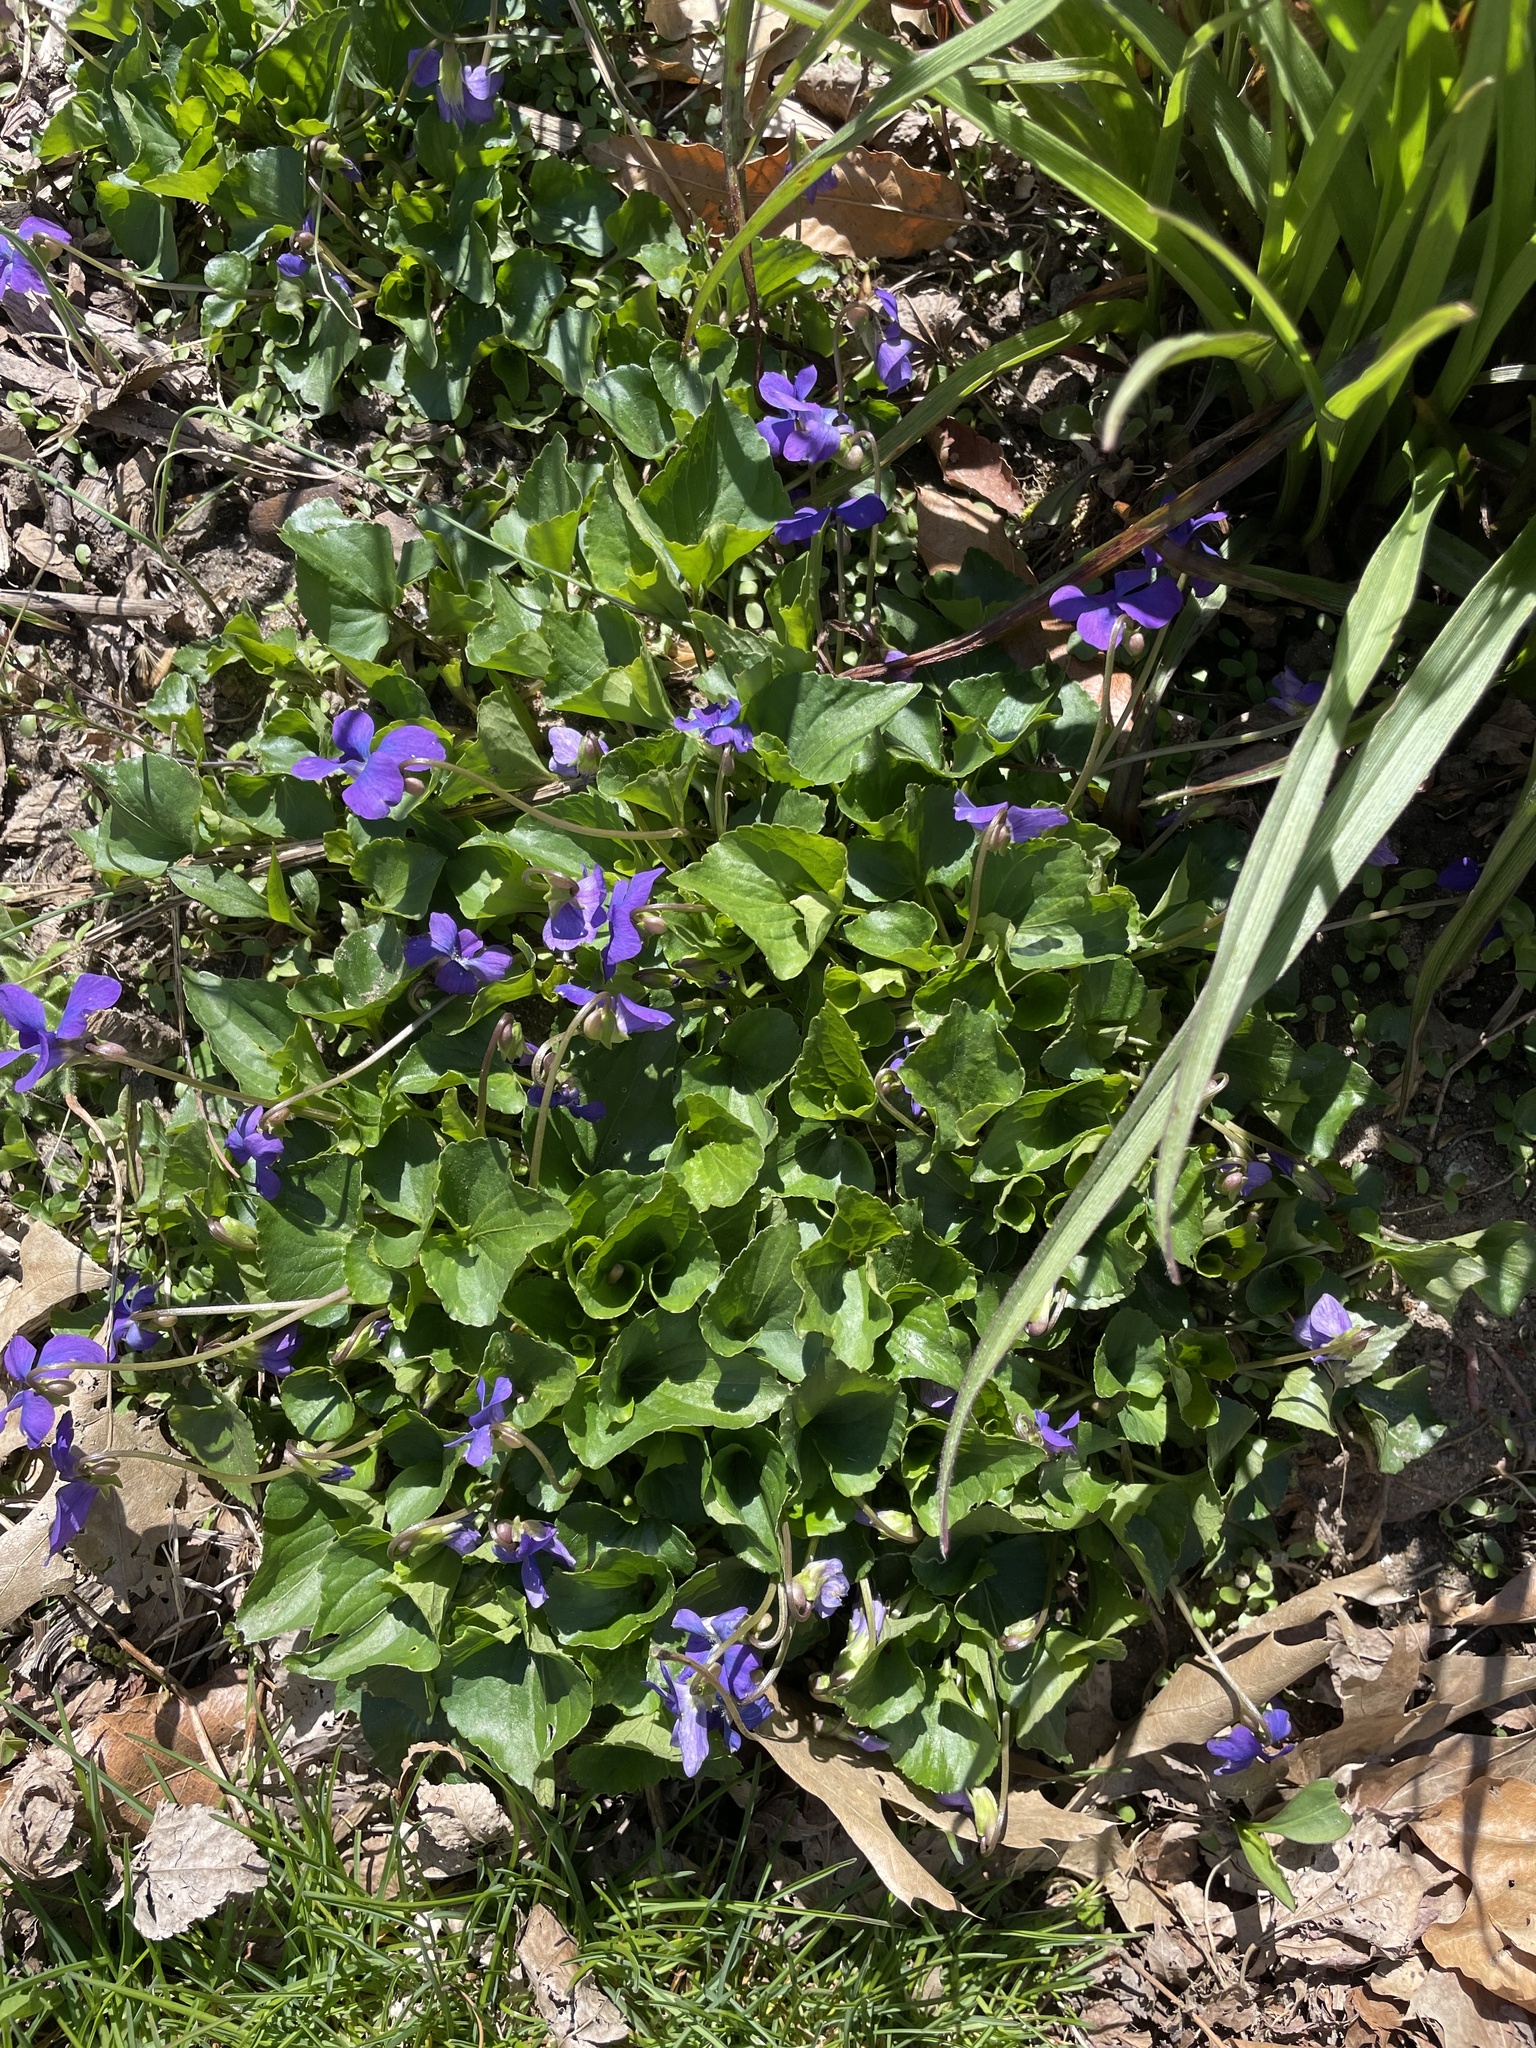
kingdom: Plantae
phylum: Tracheophyta
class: Magnoliopsida
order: Malpighiales
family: Violaceae
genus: Viola
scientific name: Viola sororia
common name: Dooryard violet
